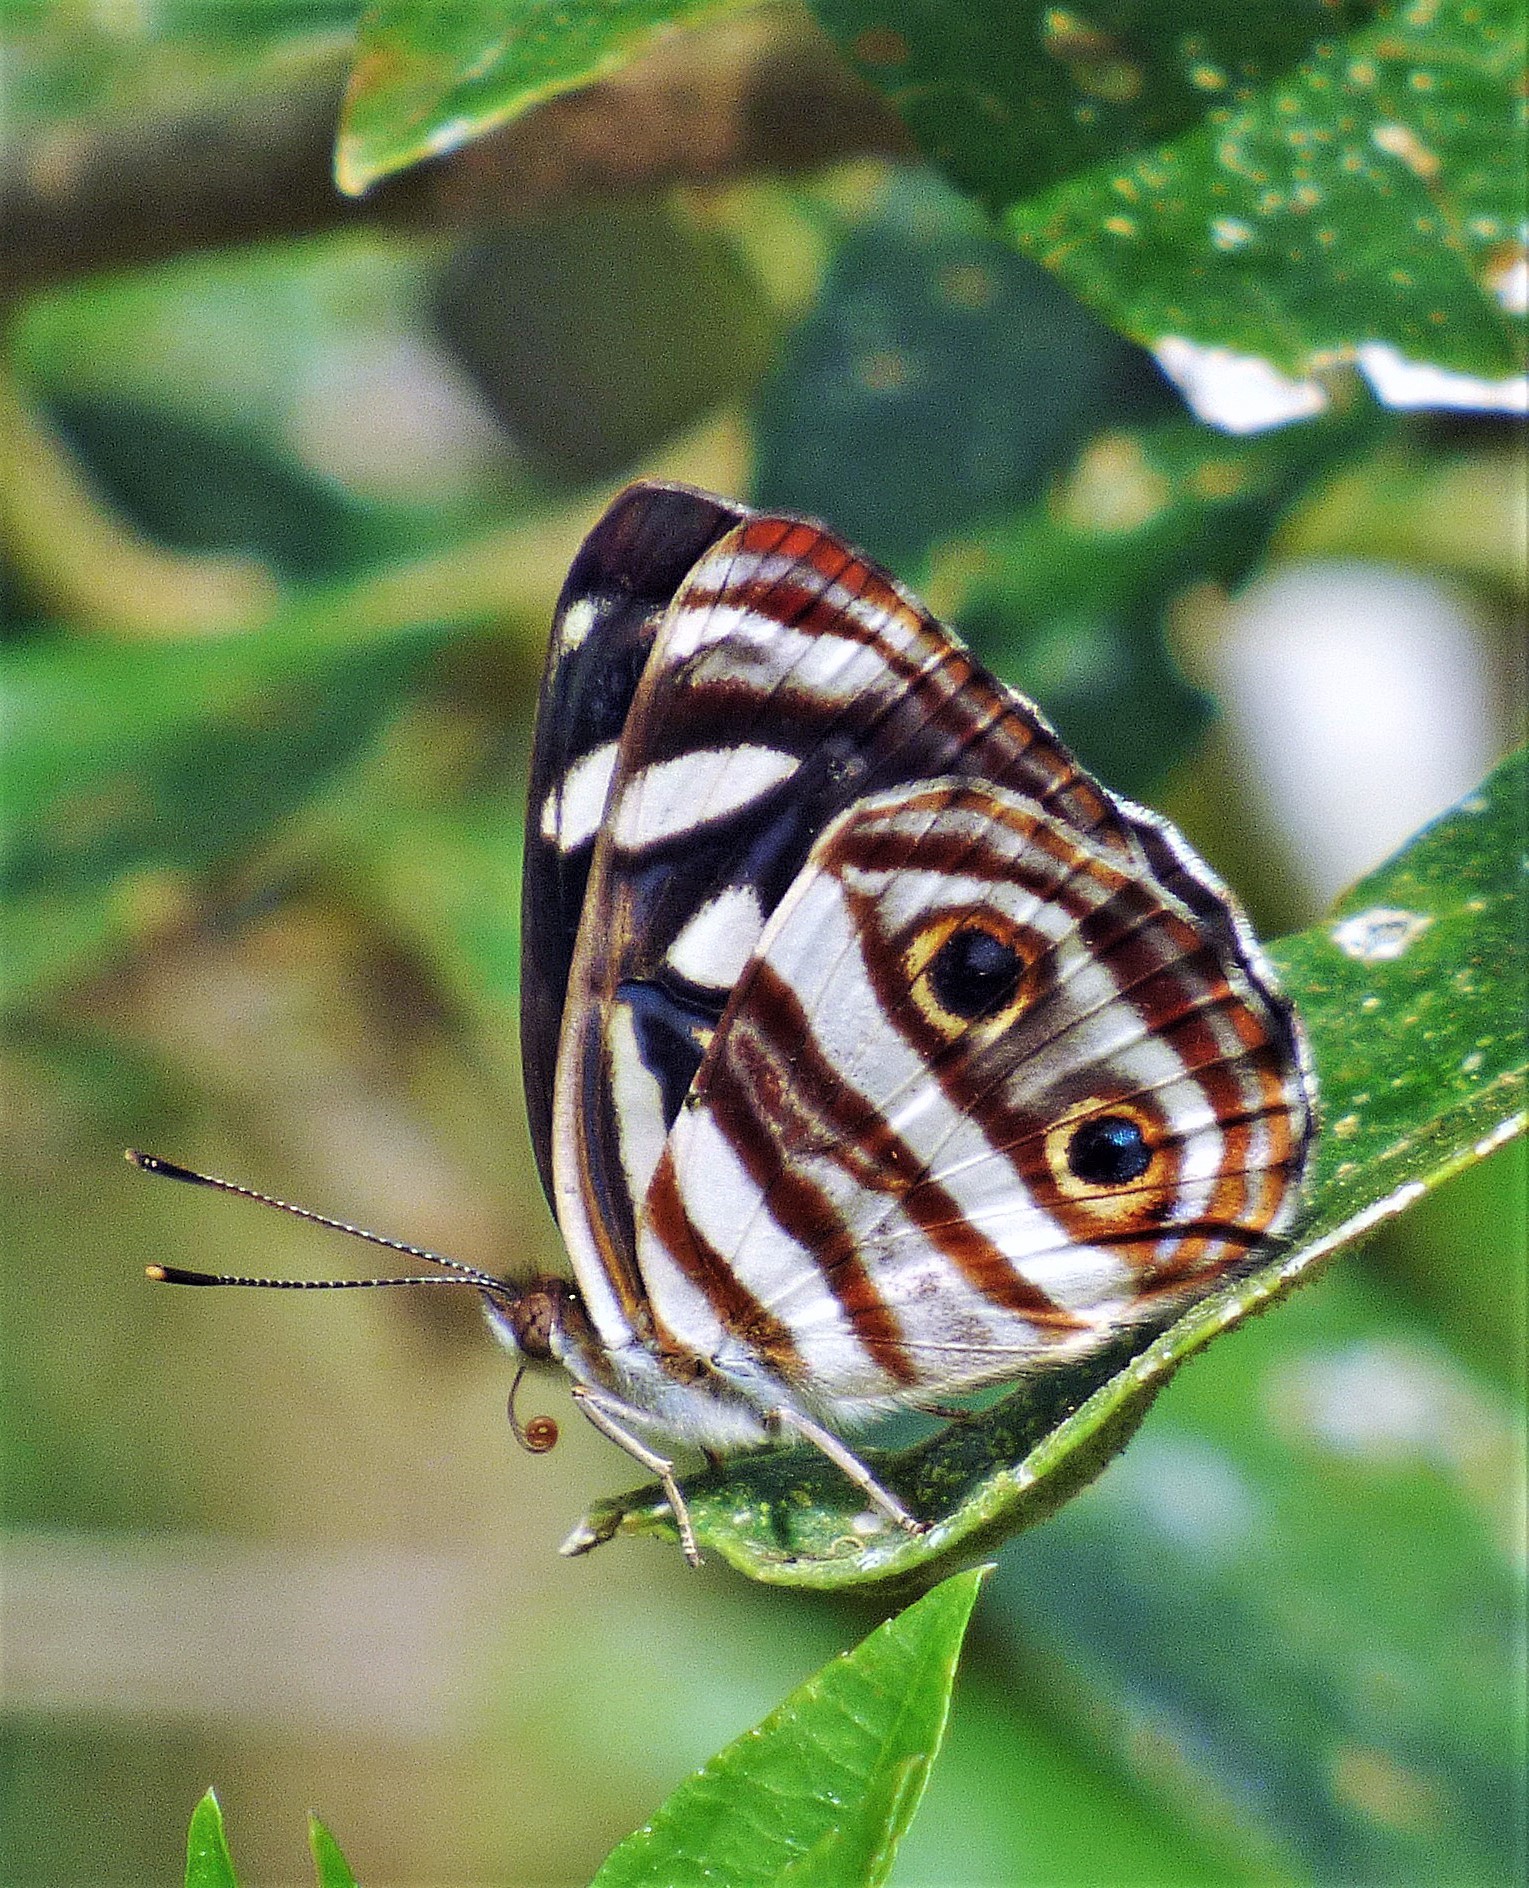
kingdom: Animalia
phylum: Arthropoda
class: Insecta
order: Lepidoptera
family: Nymphalidae
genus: Dynamine
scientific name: Dynamine mylitta
